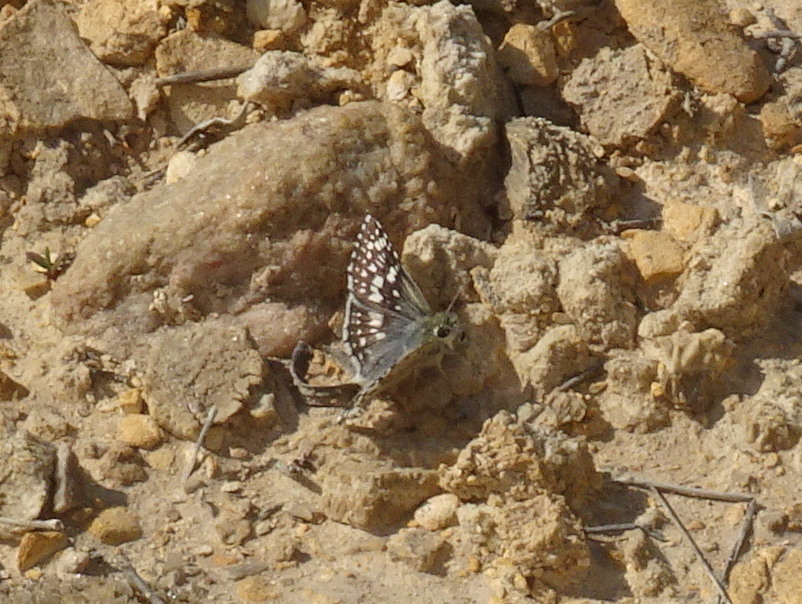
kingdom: Animalia
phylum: Arthropoda
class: Insecta
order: Lepidoptera
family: Hesperiidae
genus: Burnsius
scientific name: Burnsius communis
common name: Common checkered-skipper
